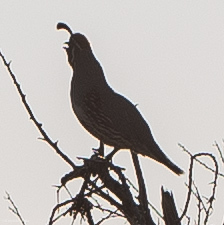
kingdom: Animalia
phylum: Chordata
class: Aves
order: Galliformes
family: Odontophoridae
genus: Callipepla
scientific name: Callipepla gambelii
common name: Gambel's quail
